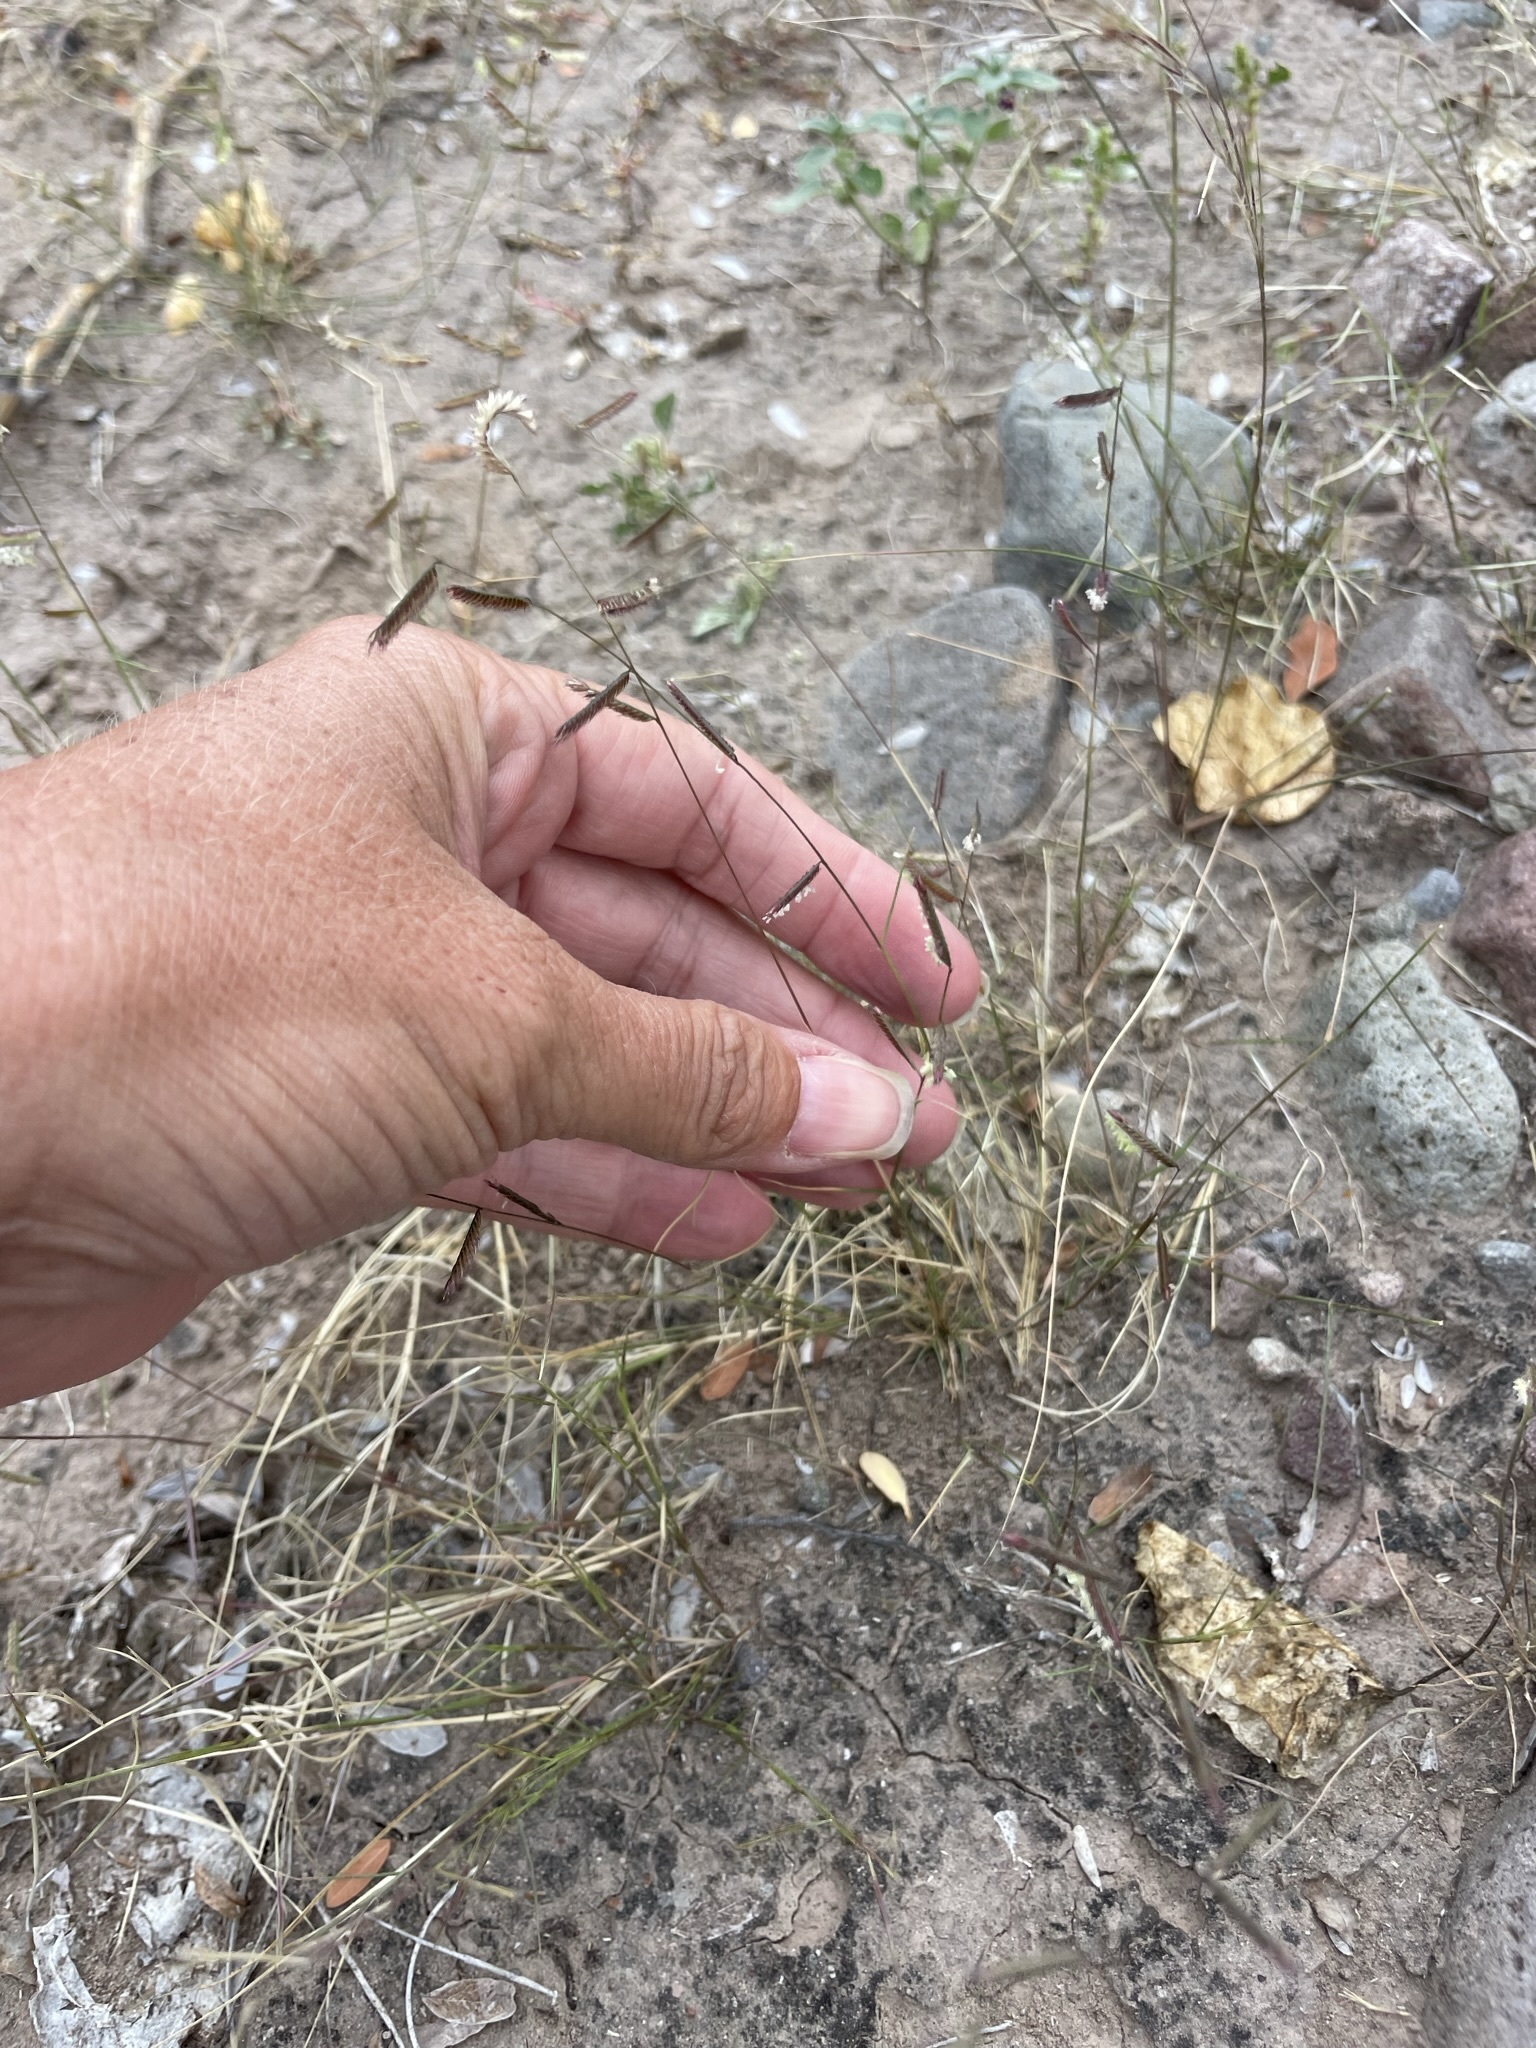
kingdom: Plantae
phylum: Tracheophyta
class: Liliopsida
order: Poales
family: Poaceae
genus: Bouteloua
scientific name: Bouteloua barbata
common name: Six-weeks grama
